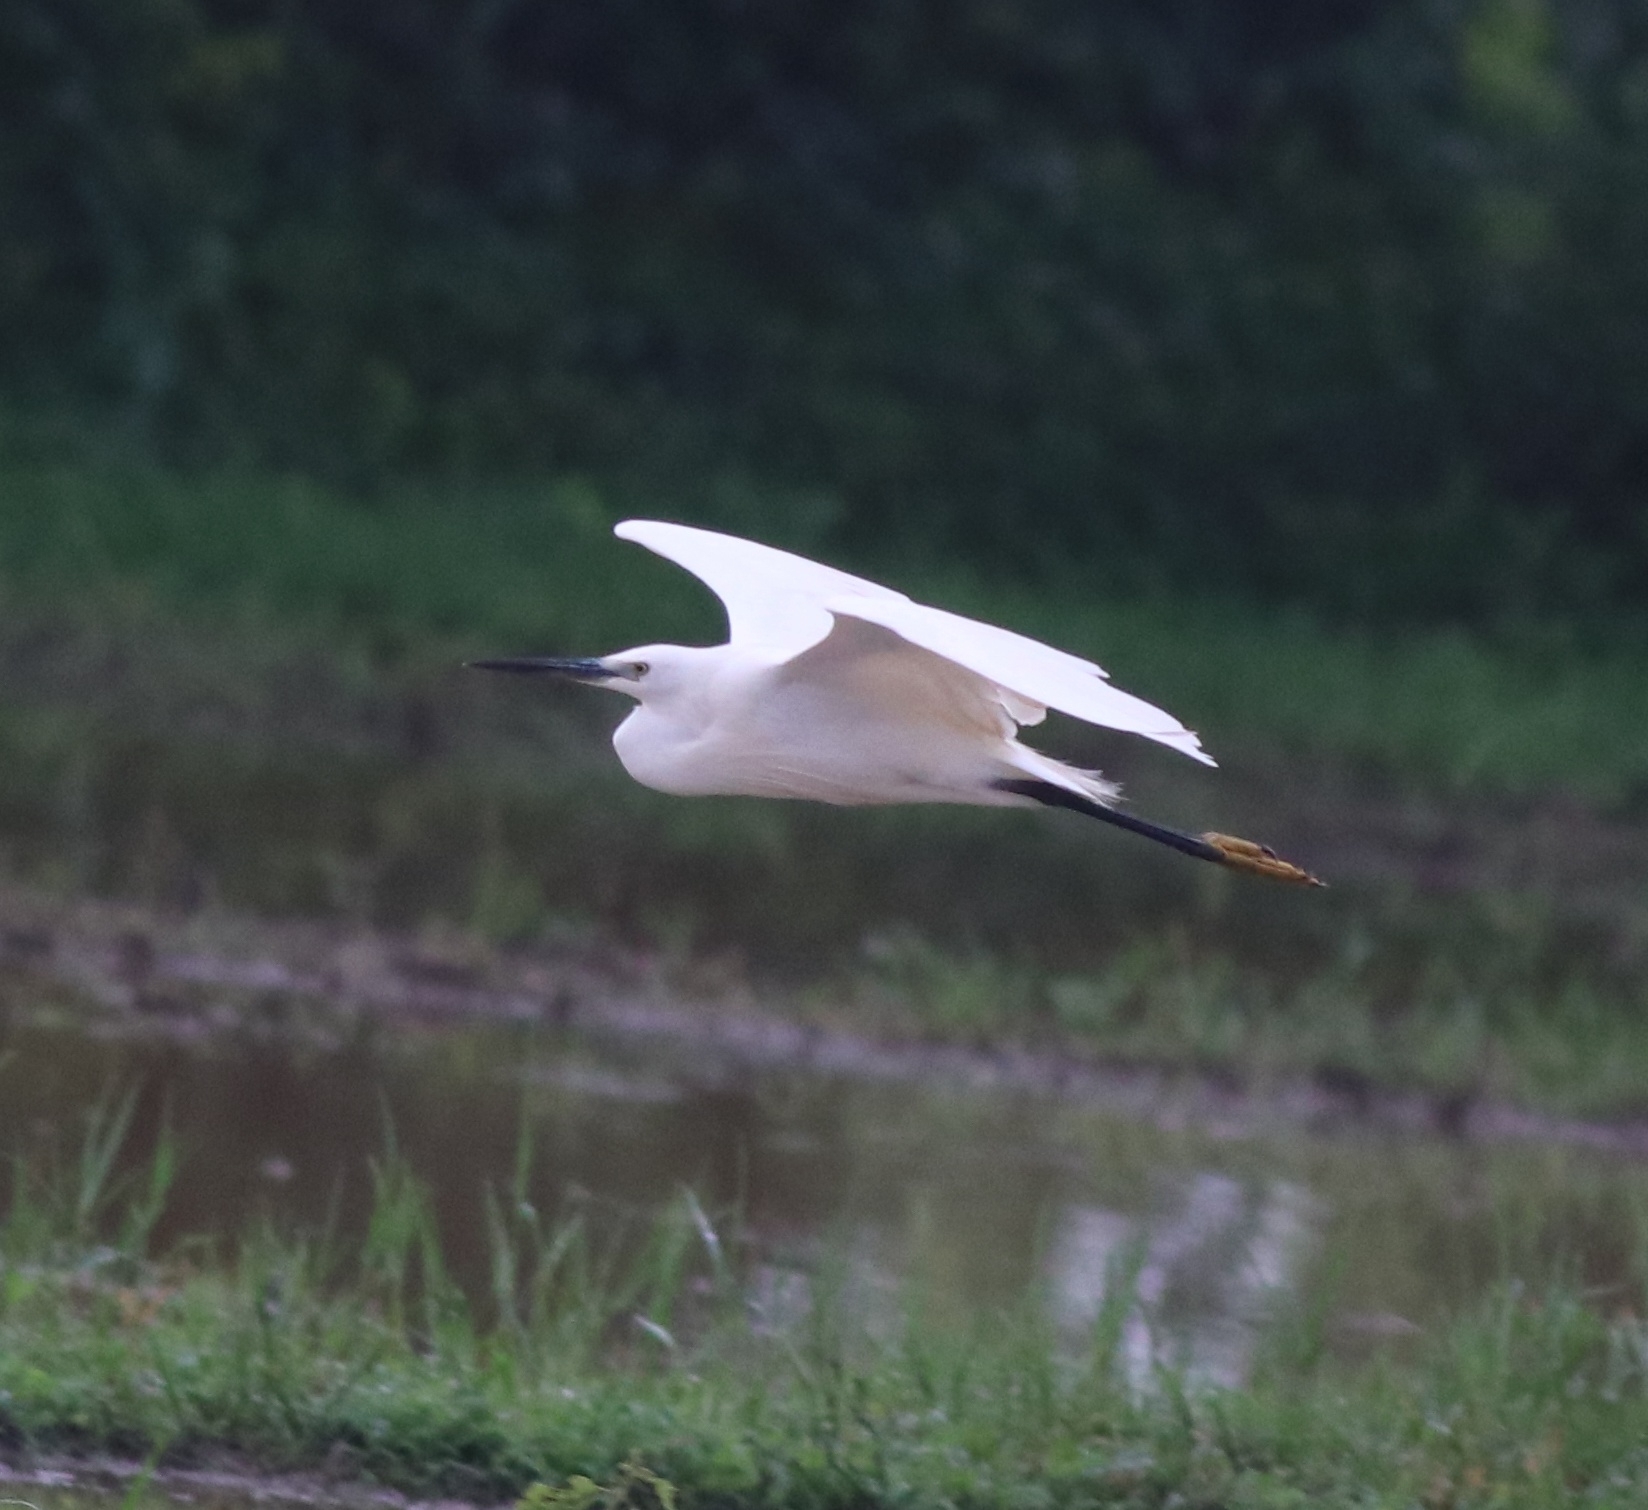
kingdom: Animalia
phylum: Chordata
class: Aves
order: Pelecaniformes
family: Ardeidae
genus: Egretta
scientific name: Egretta garzetta
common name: Little egret
